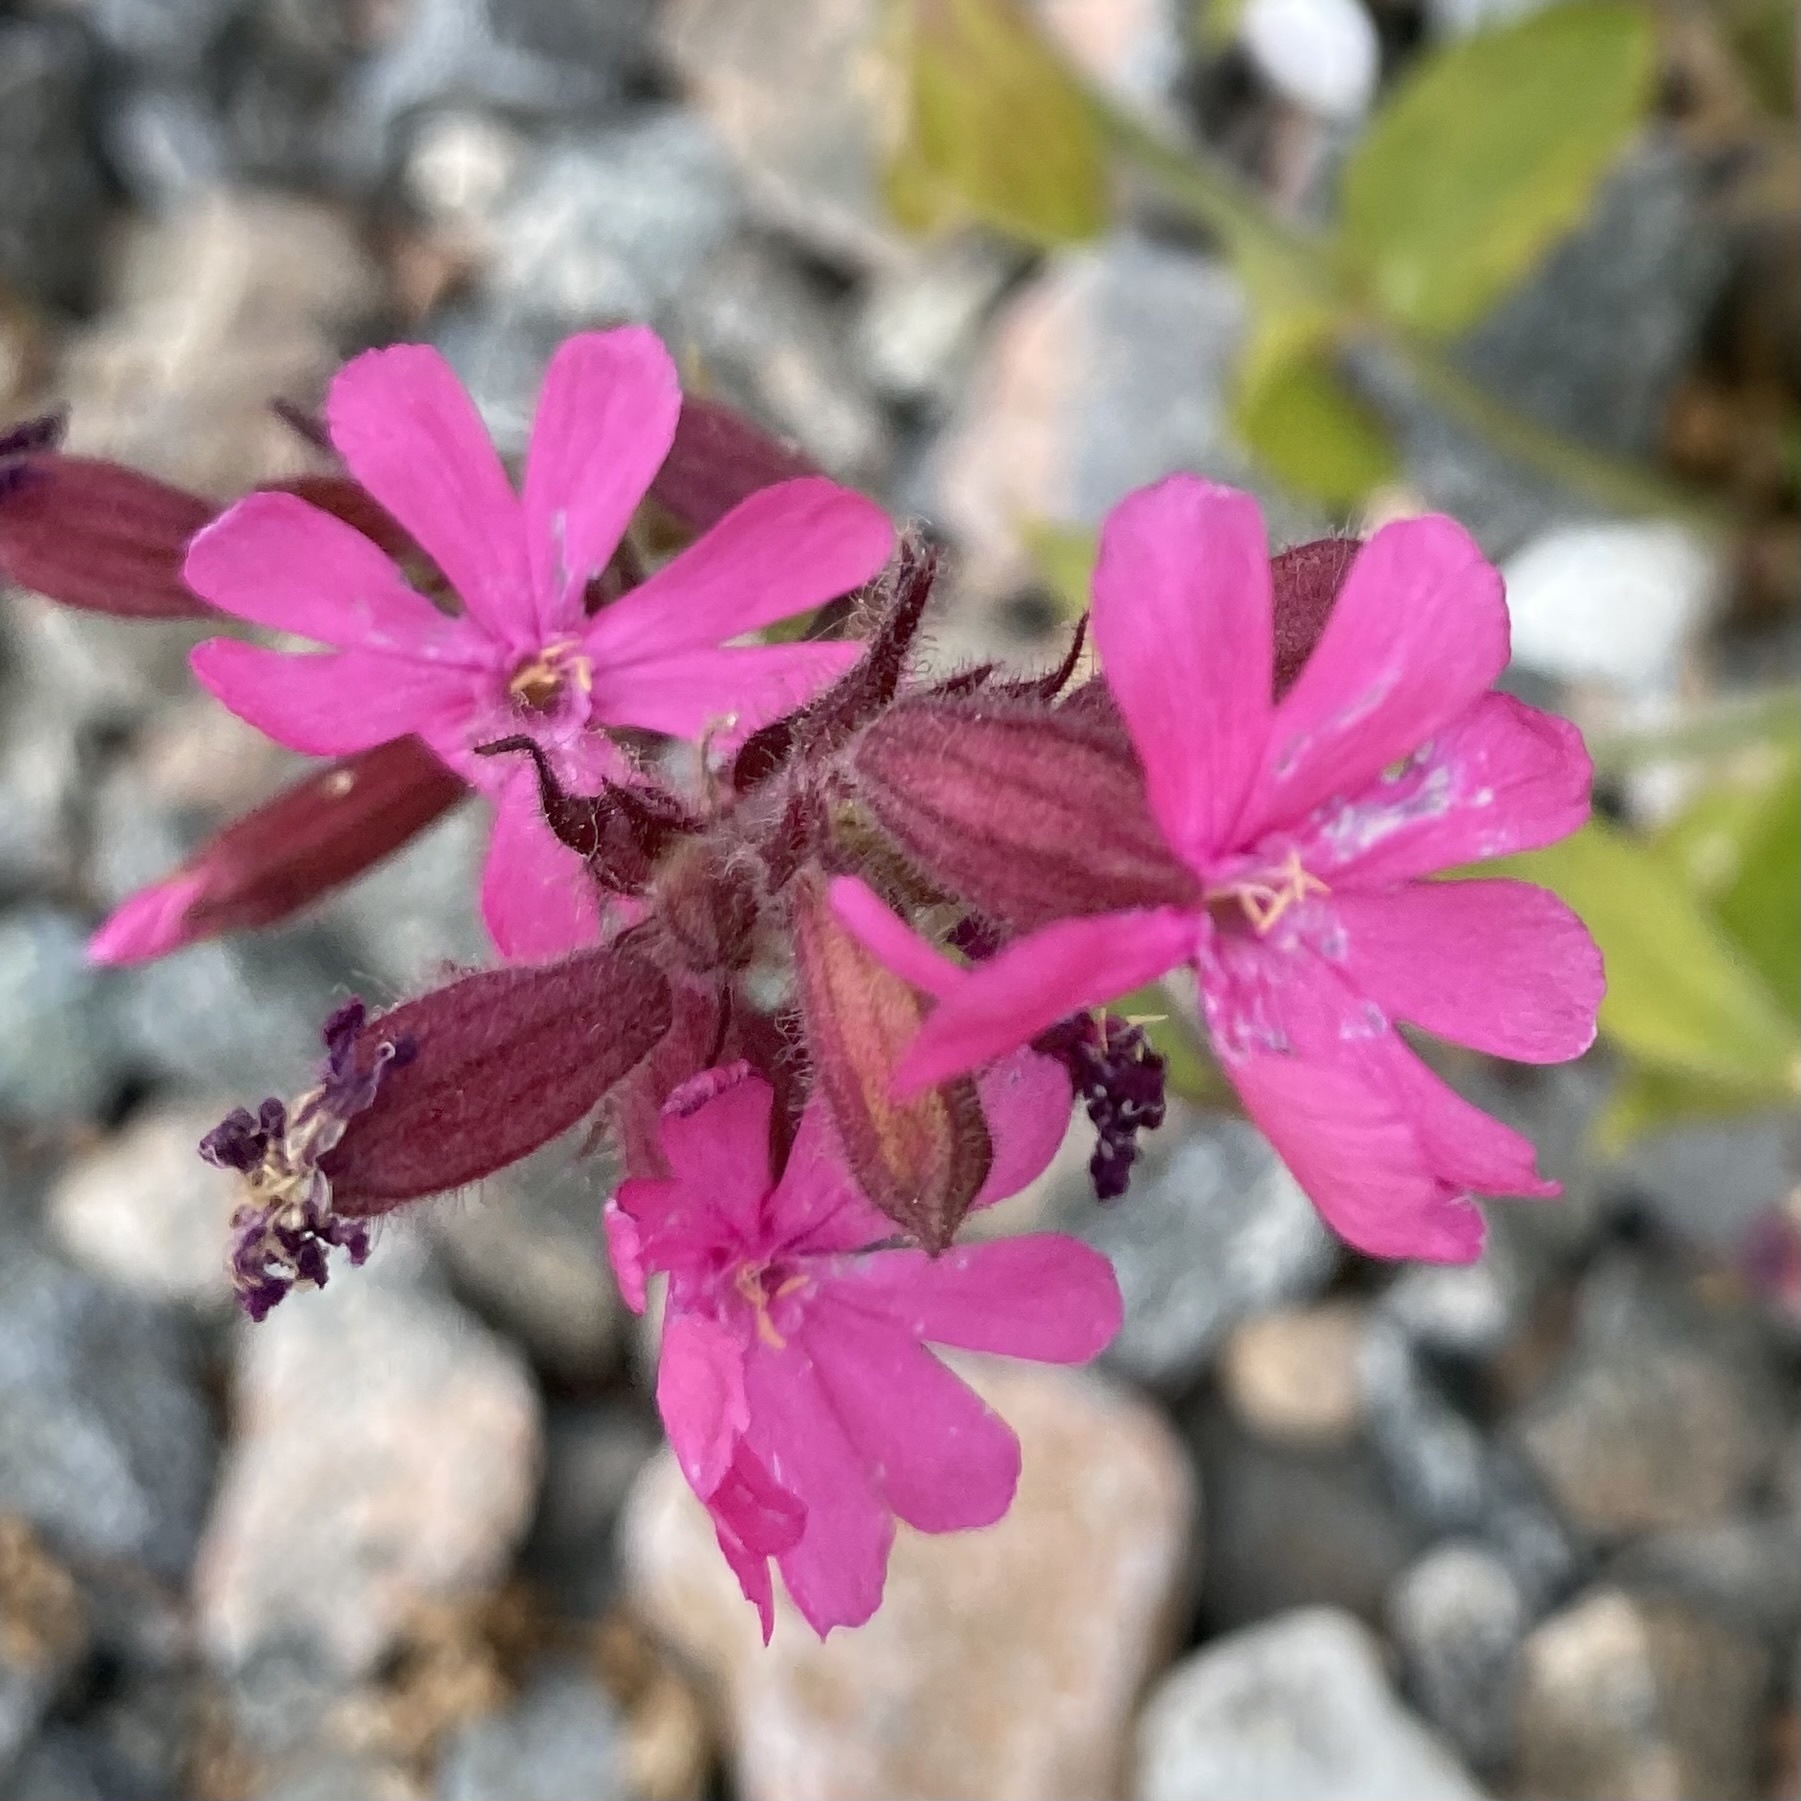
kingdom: Plantae
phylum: Tracheophyta
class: Magnoliopsida
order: Caryophyllales
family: Caryophyllaceae
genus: Silene
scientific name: Silene dioica
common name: Red campion
